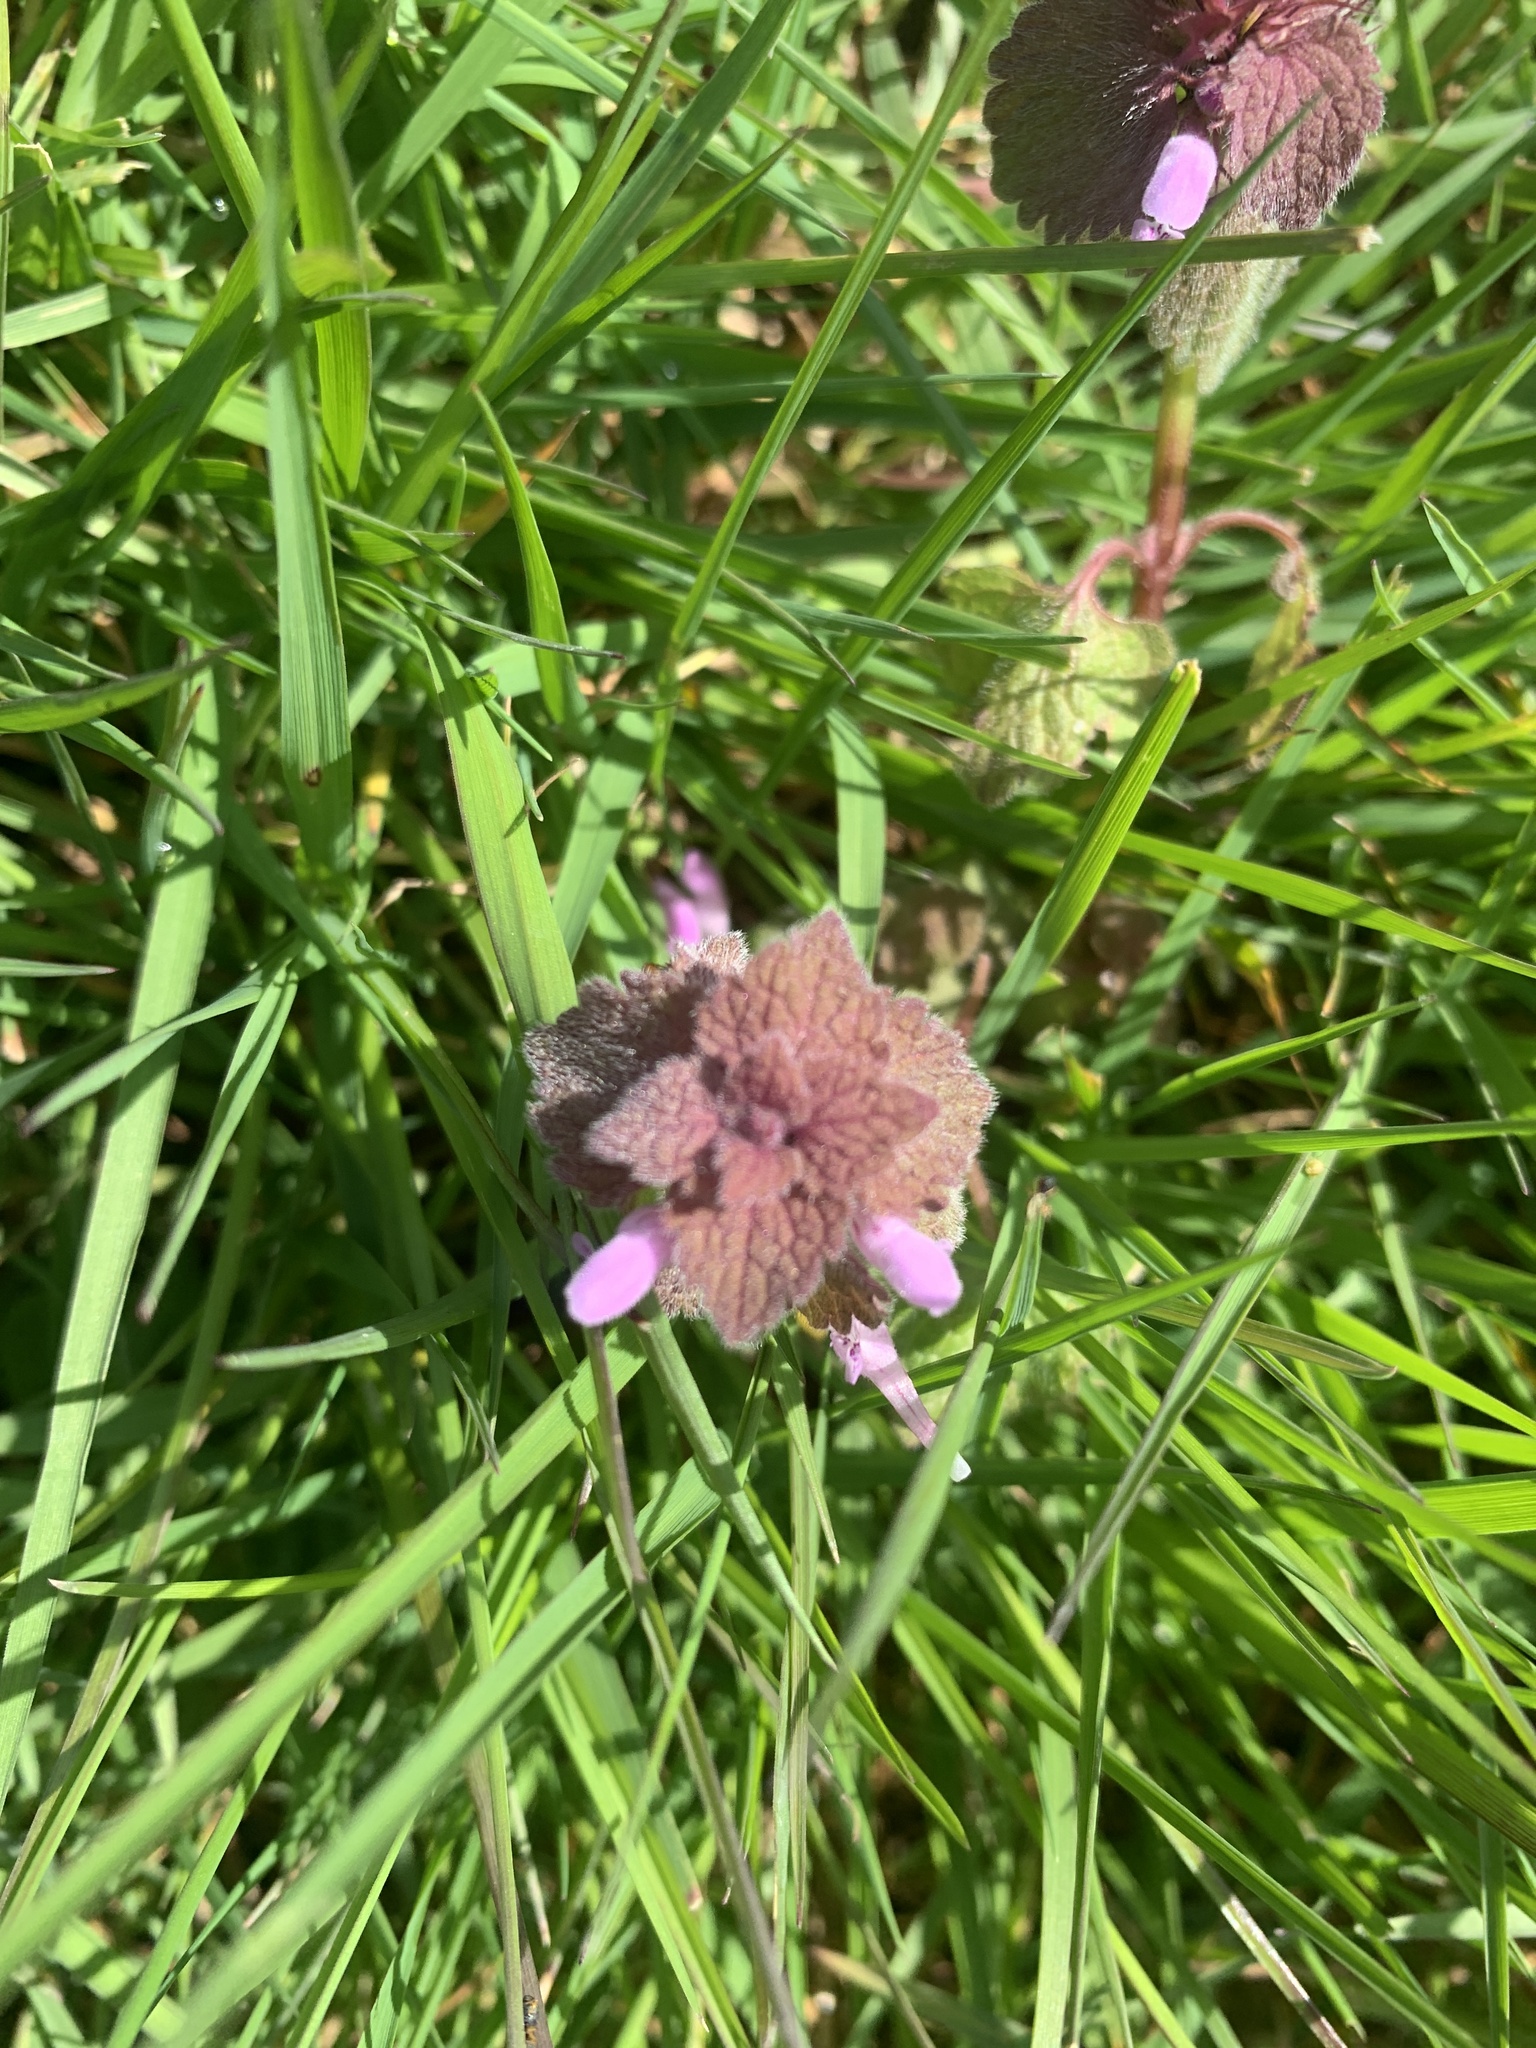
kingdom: Plantae
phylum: Tracheophyta
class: Magnoliopsida
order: Lamiales
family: Lamiaceae
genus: Lamium
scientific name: Lamium purpureum
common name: Red dead-nettle
